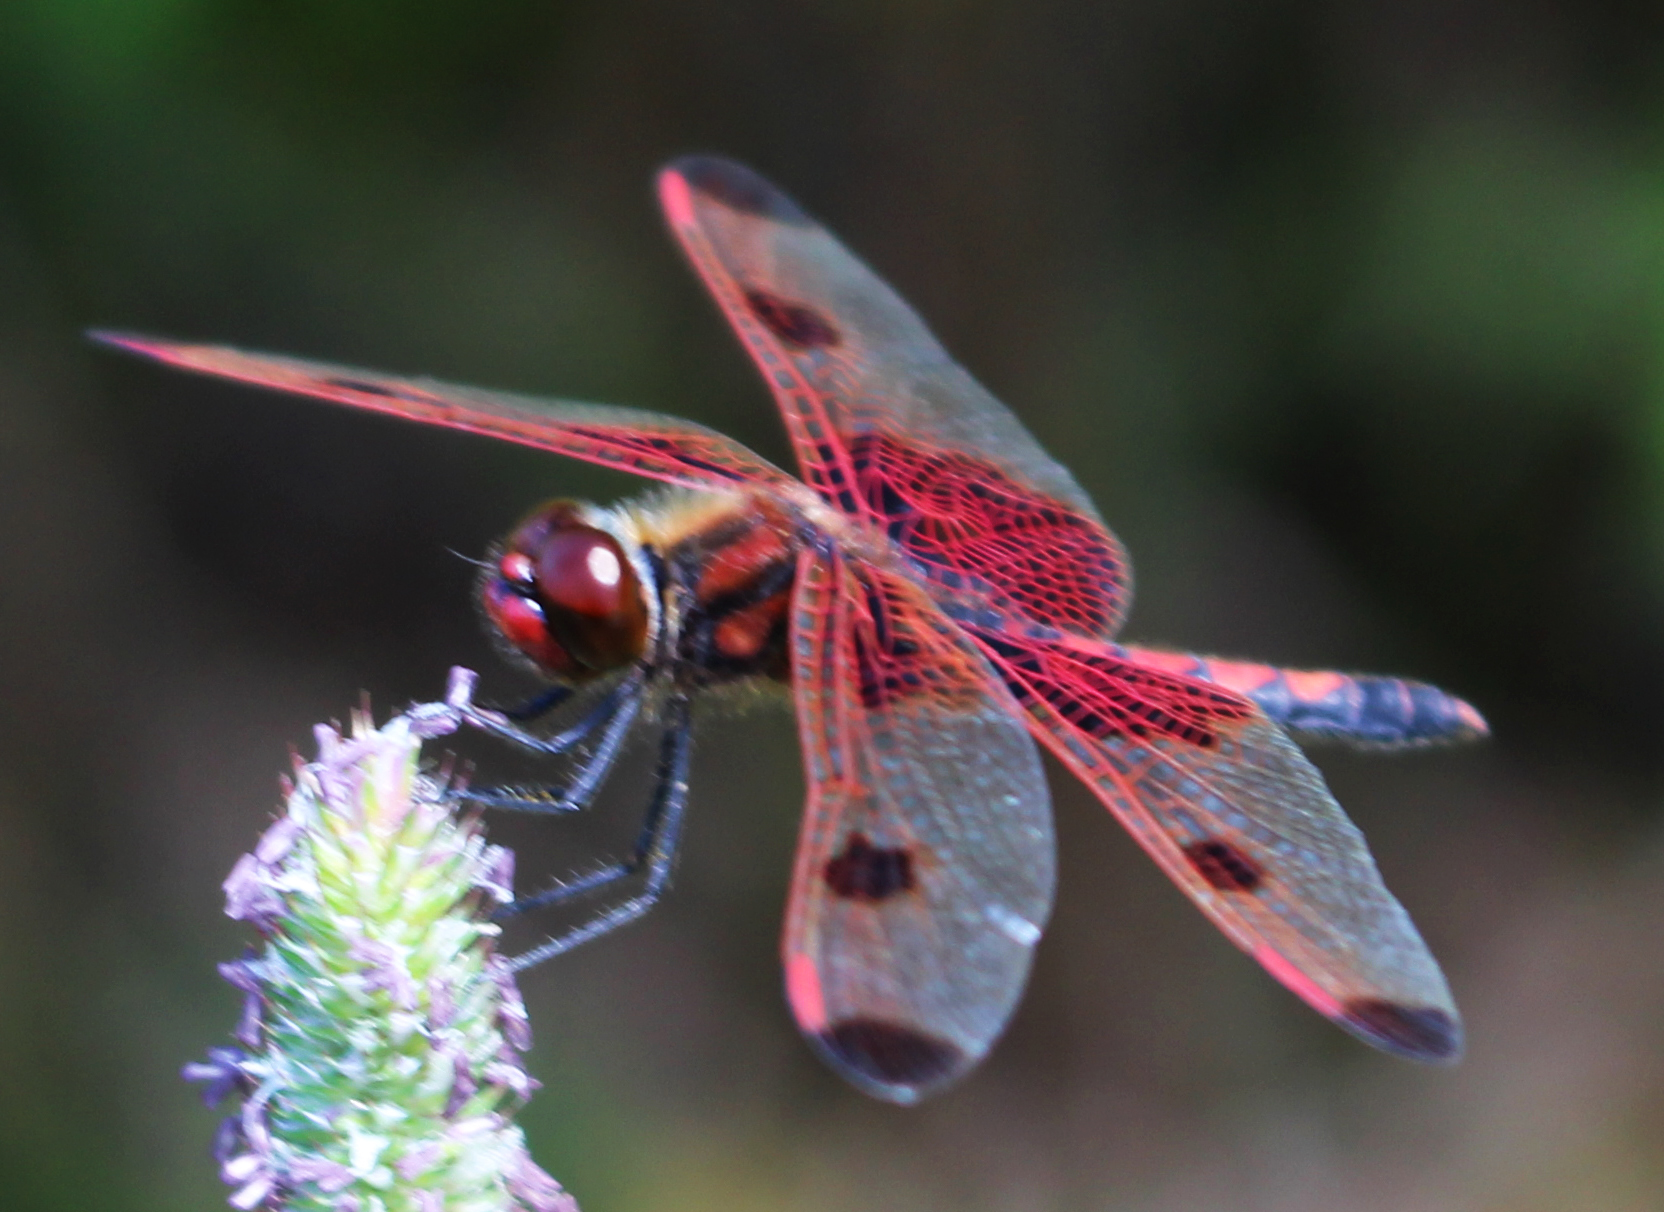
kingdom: Animalia
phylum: Arthropoda
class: Insecta
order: Odonata
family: Libellulidae
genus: Celithemis
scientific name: Celithemis elisa
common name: Calico pennant
